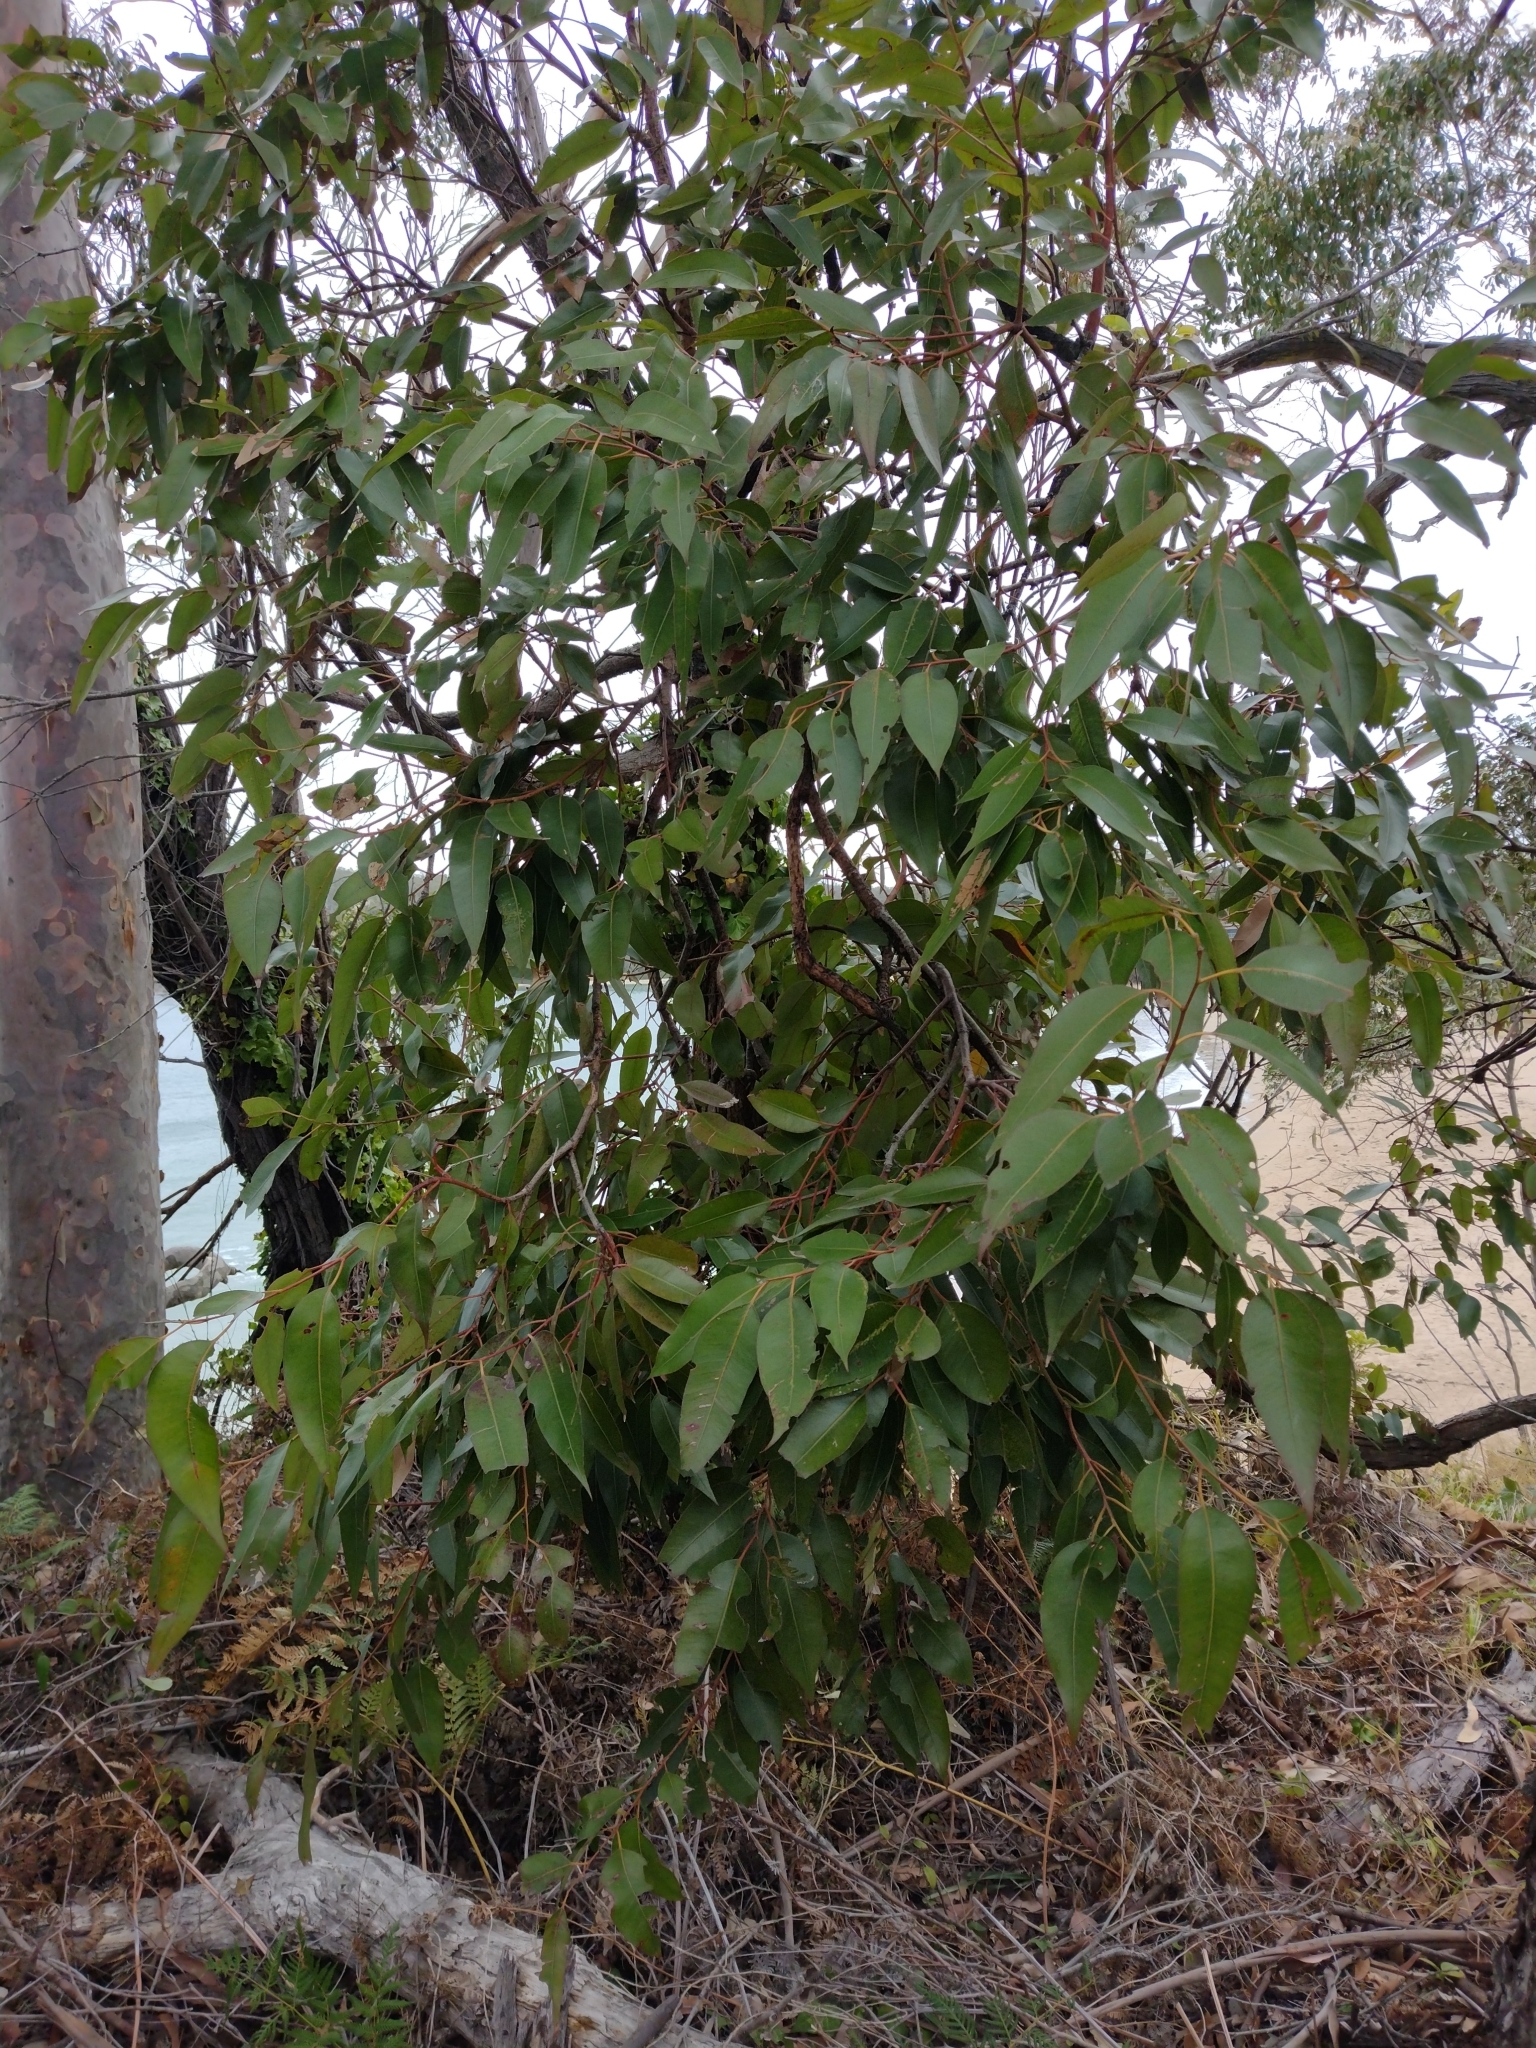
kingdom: Plantae
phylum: Tracheophyta
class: Magnoliopsida
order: Myrtales
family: Myrtaceae
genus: Eucalyptus
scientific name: Eucalyptus scias
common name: Red mahogany
